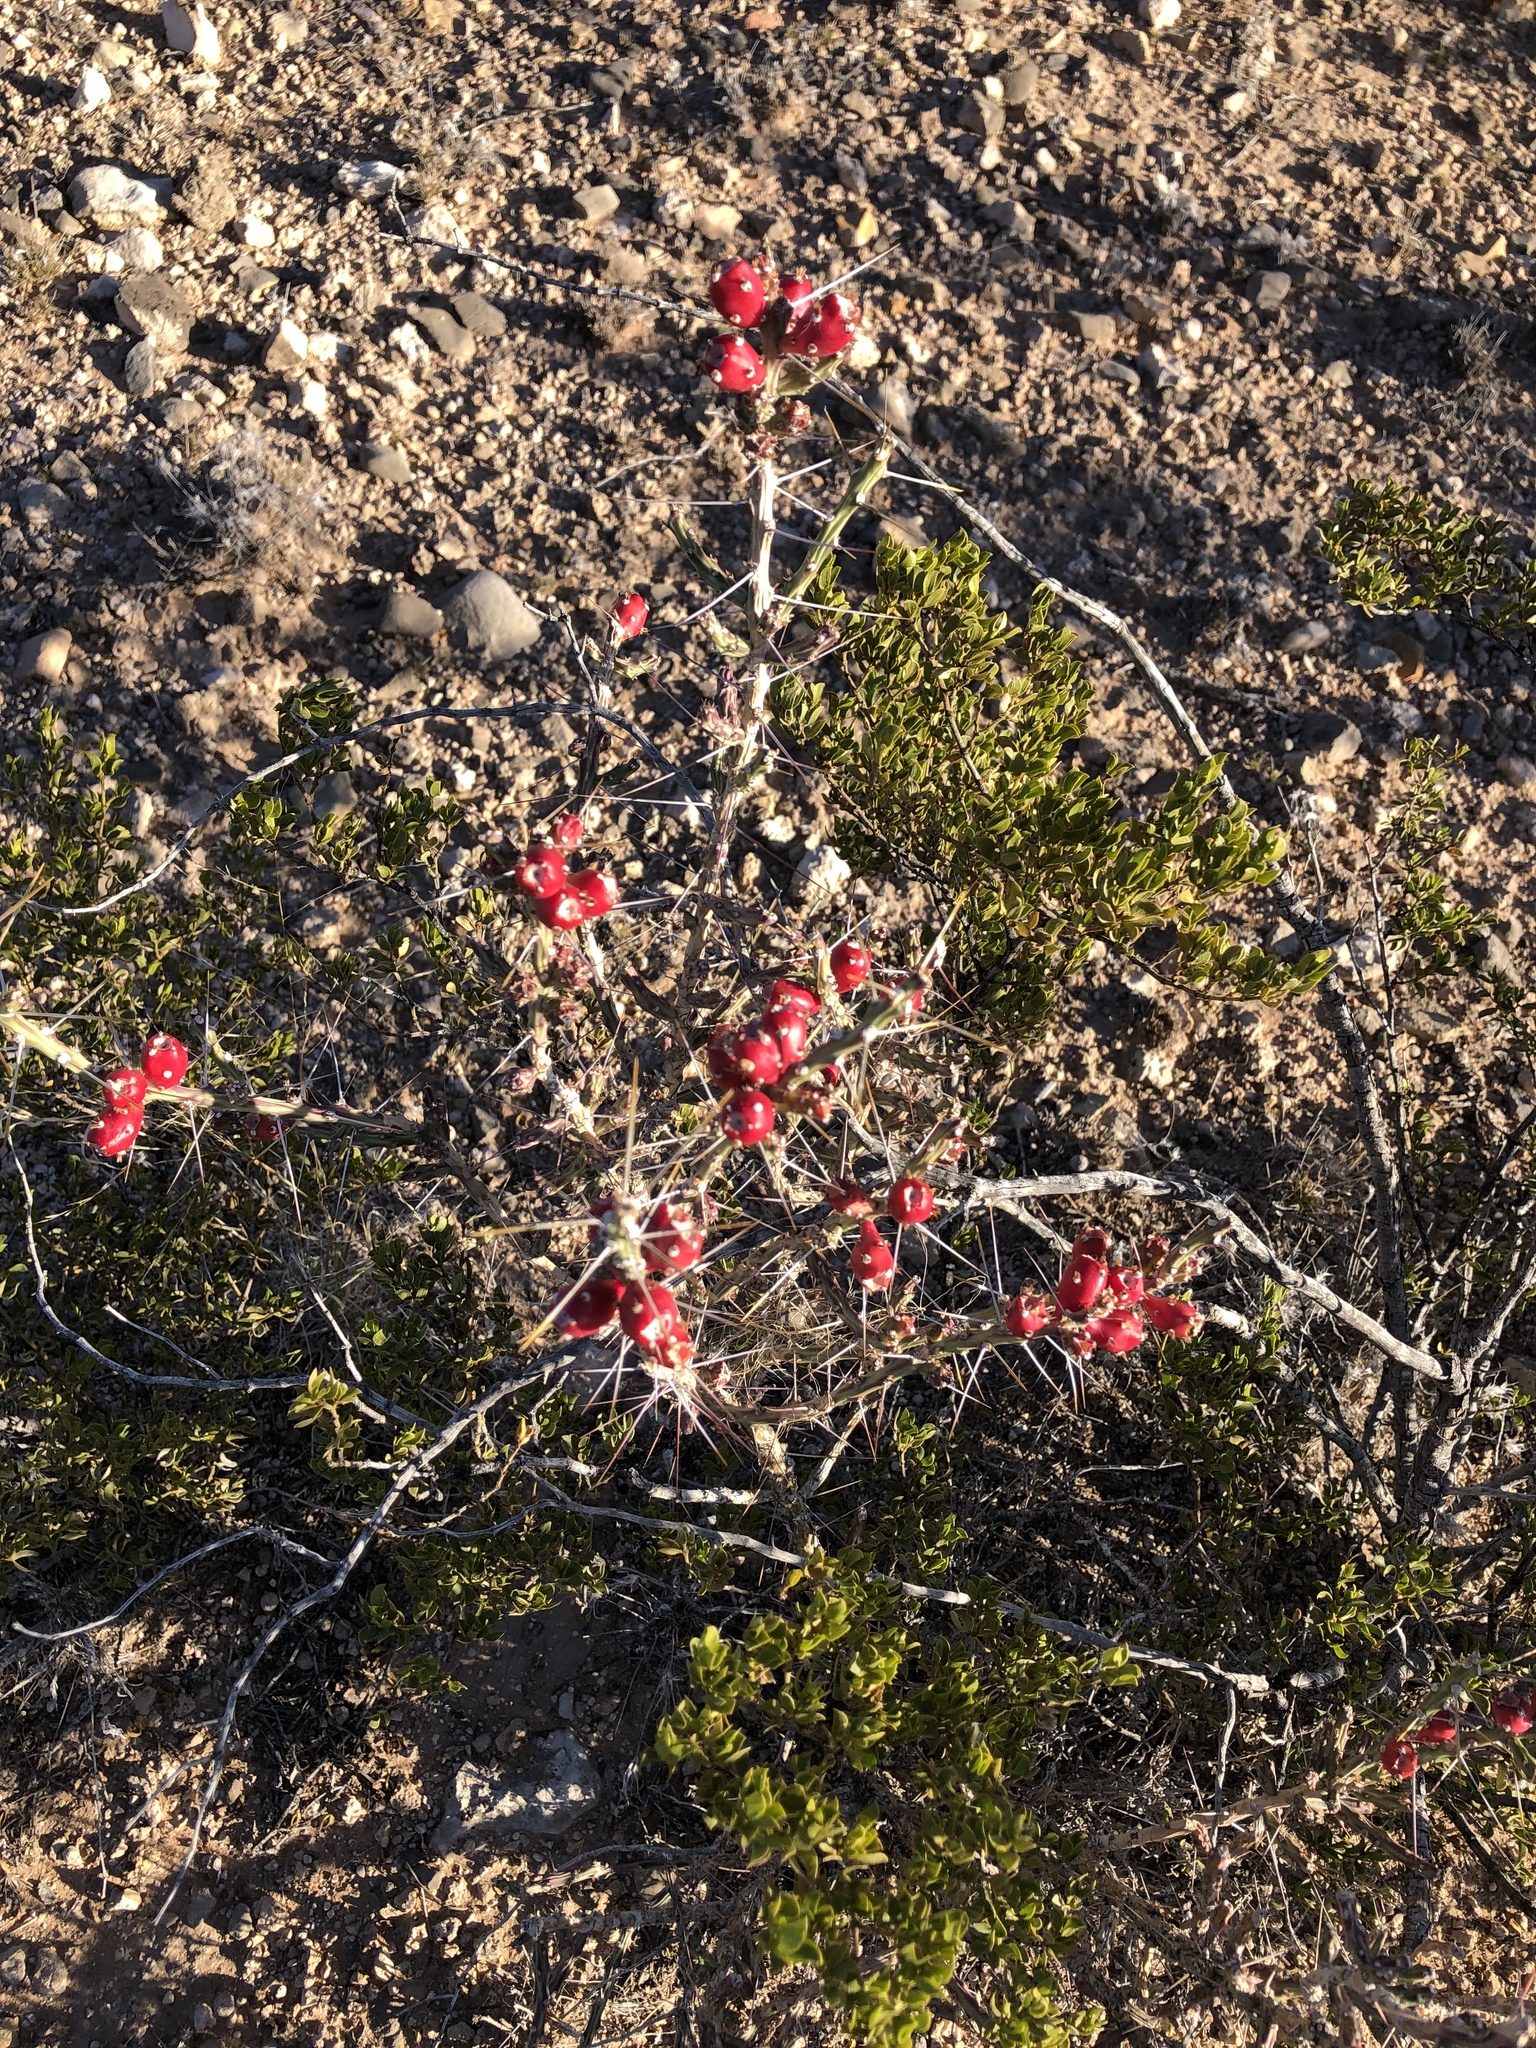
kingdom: Plantae
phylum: Tracheophyta
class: Magnoliopsida
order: Caryophyllales
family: Cactaceae
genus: Cylindropuntia
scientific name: Cylindropuntia leptocaulis
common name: Christmas cactus
